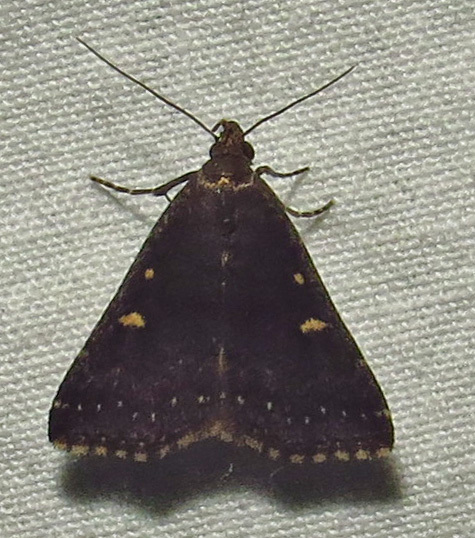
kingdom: Animalia
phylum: Arthropoda
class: Insecta
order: Lepidoptera
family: Erebidae
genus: Tetanolita
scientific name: Tetanolita mynesalis
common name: Smoky tetanolita moth
